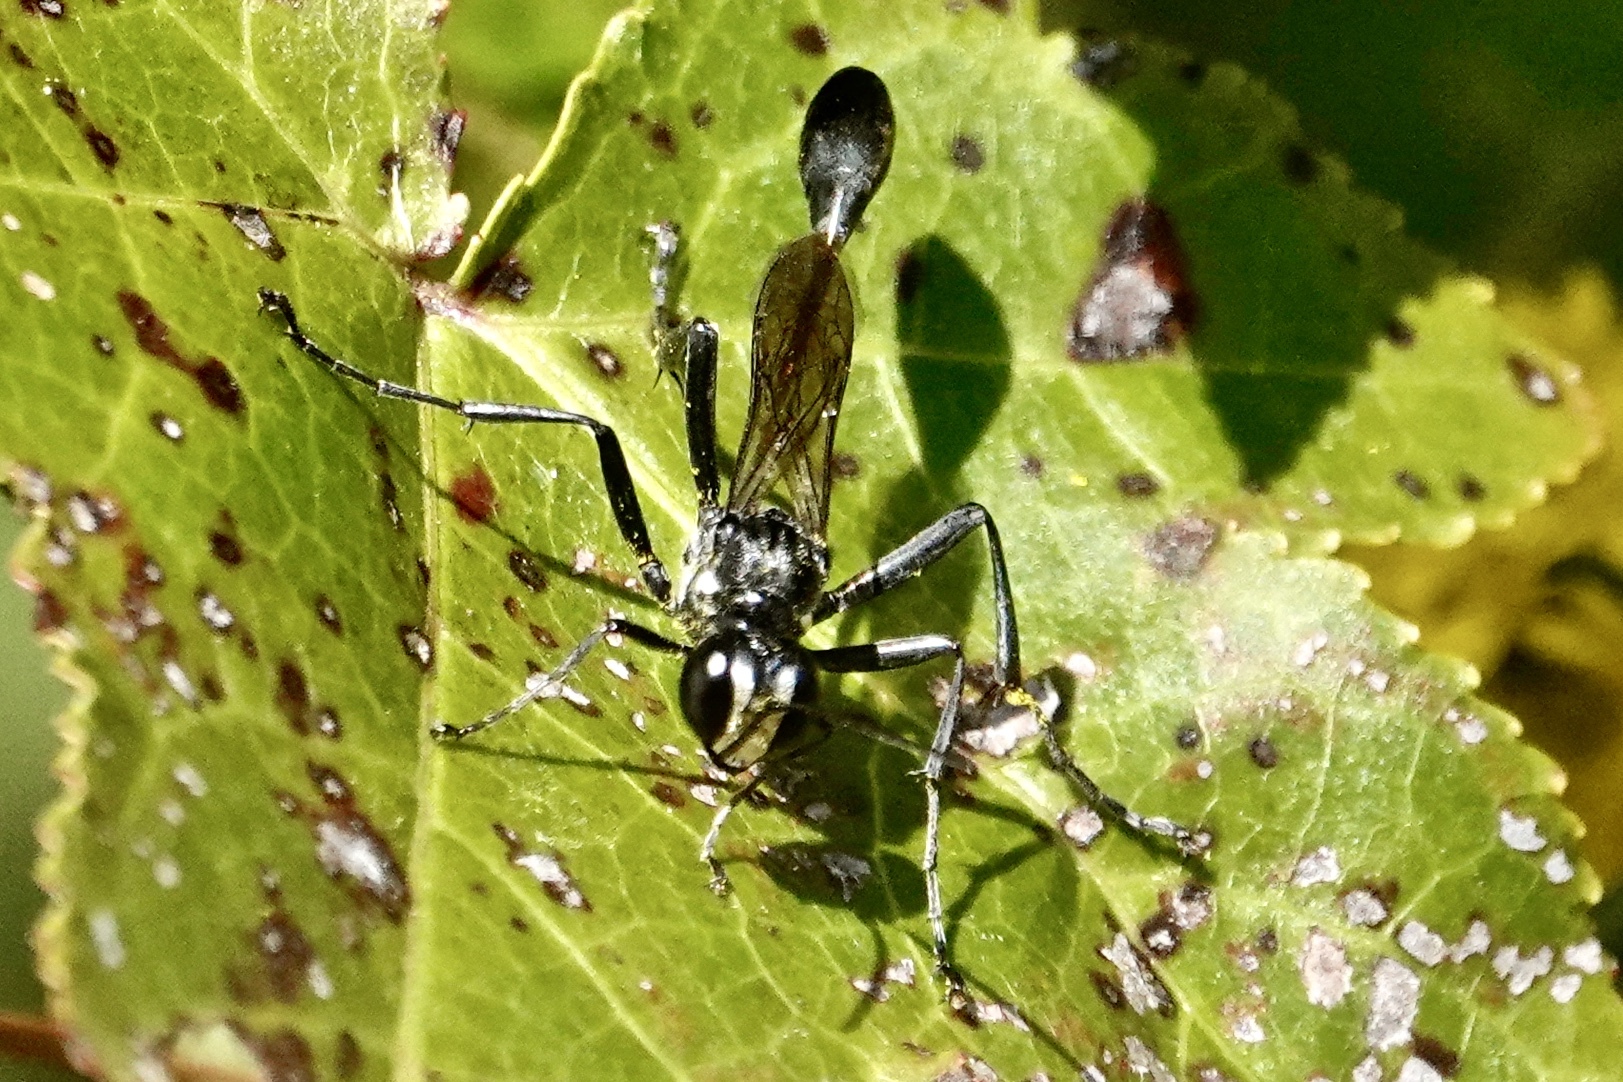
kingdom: Animalia
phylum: Arthropoda
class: Insecta
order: Hymenoptera
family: Sphecidae
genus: Eremnophila
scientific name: Eremnophila aureonotata
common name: Gold-marked thread-waisted wasp
